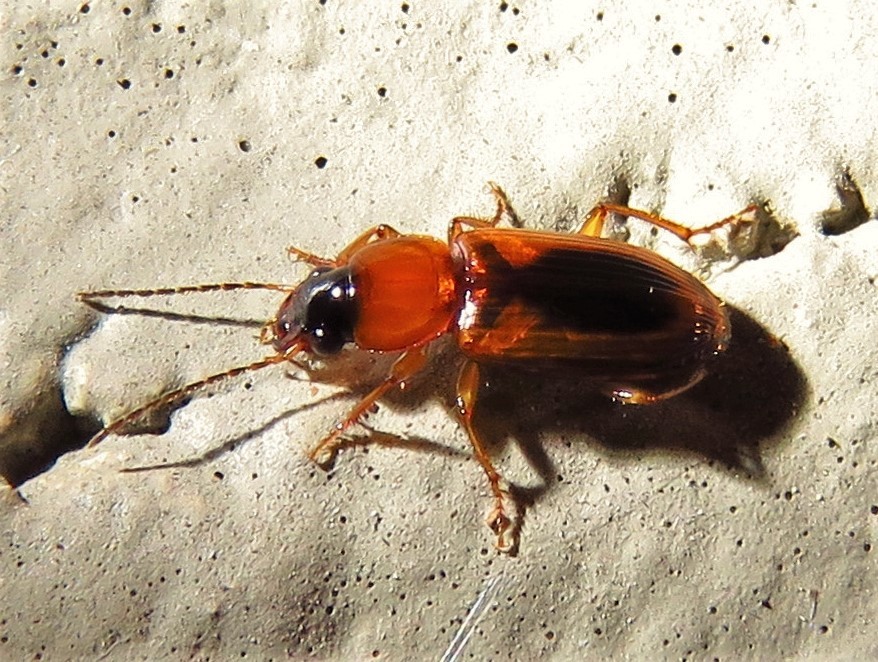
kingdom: Animalia
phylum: Arthropoda
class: Insecta
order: Coleoptera
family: Carabidae
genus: Stenolophus
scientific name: Stenolophus dissimilis
